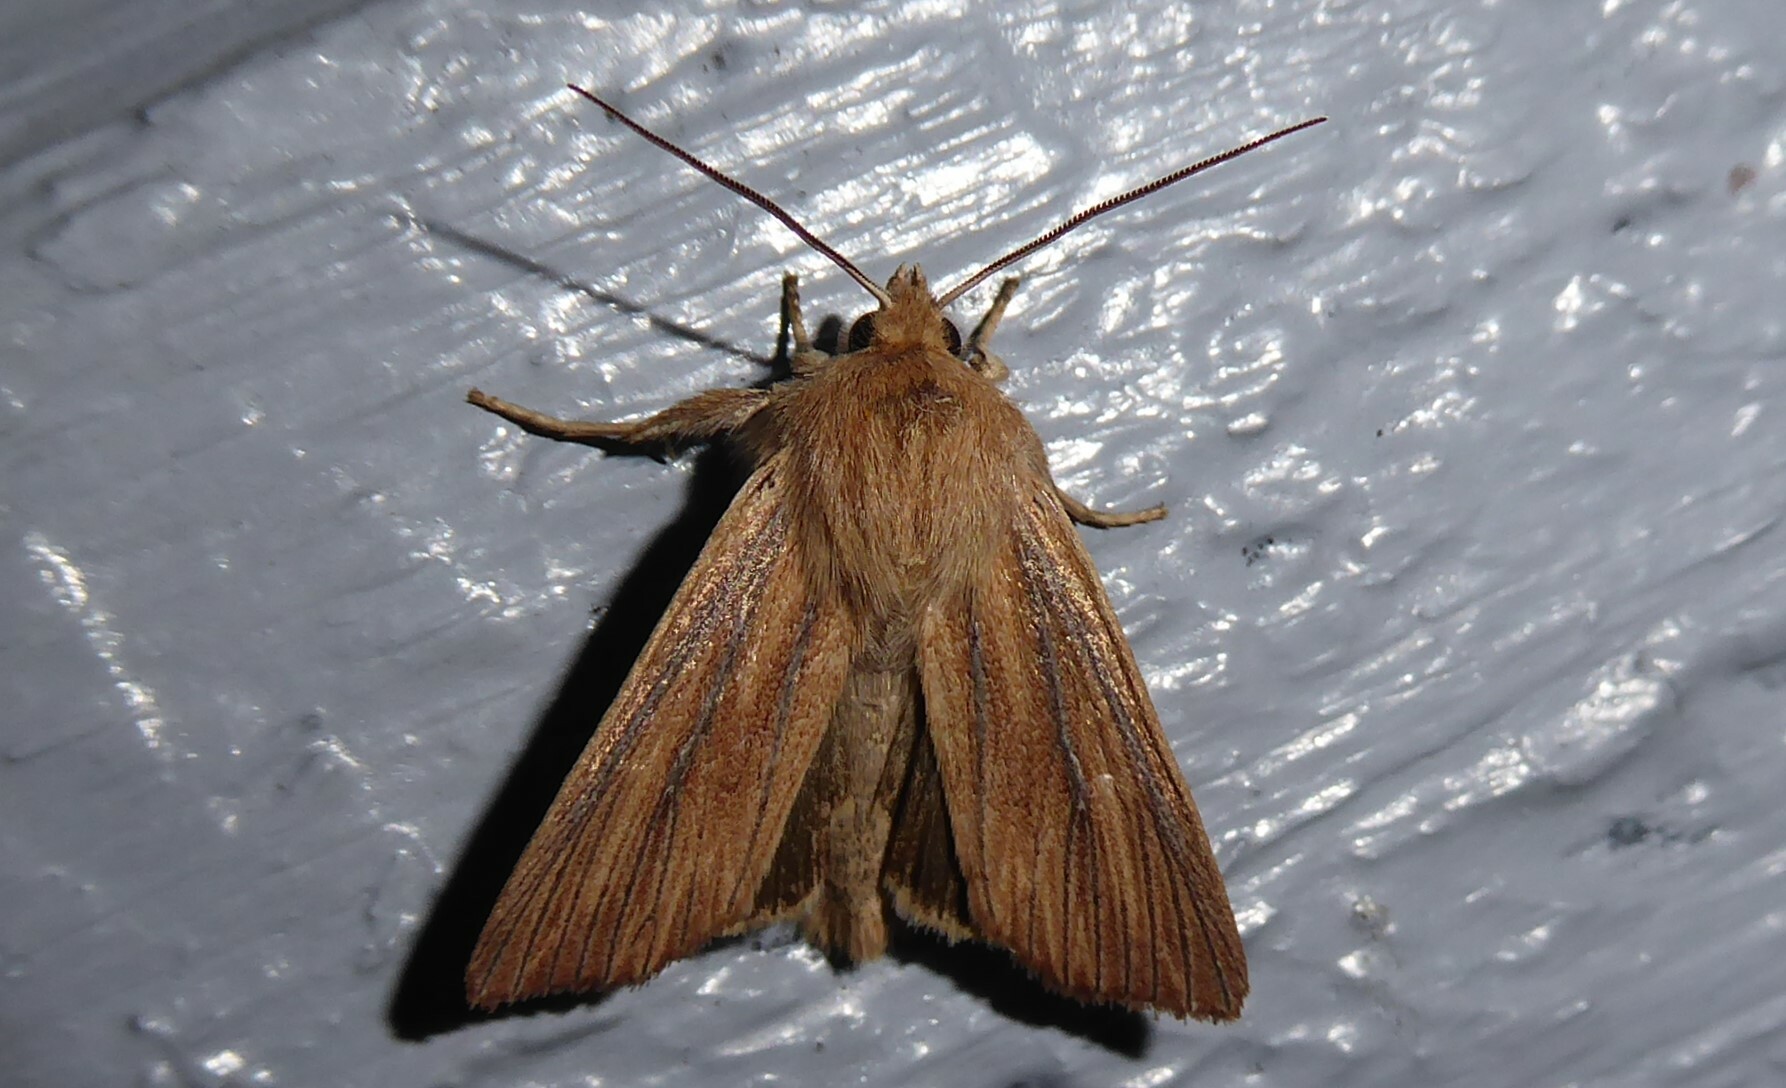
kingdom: Animalia
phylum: Arthropoda
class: Insecta
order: Lepidoptera
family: Noctuidae
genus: Ichneutica
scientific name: Ichneutica arotis
